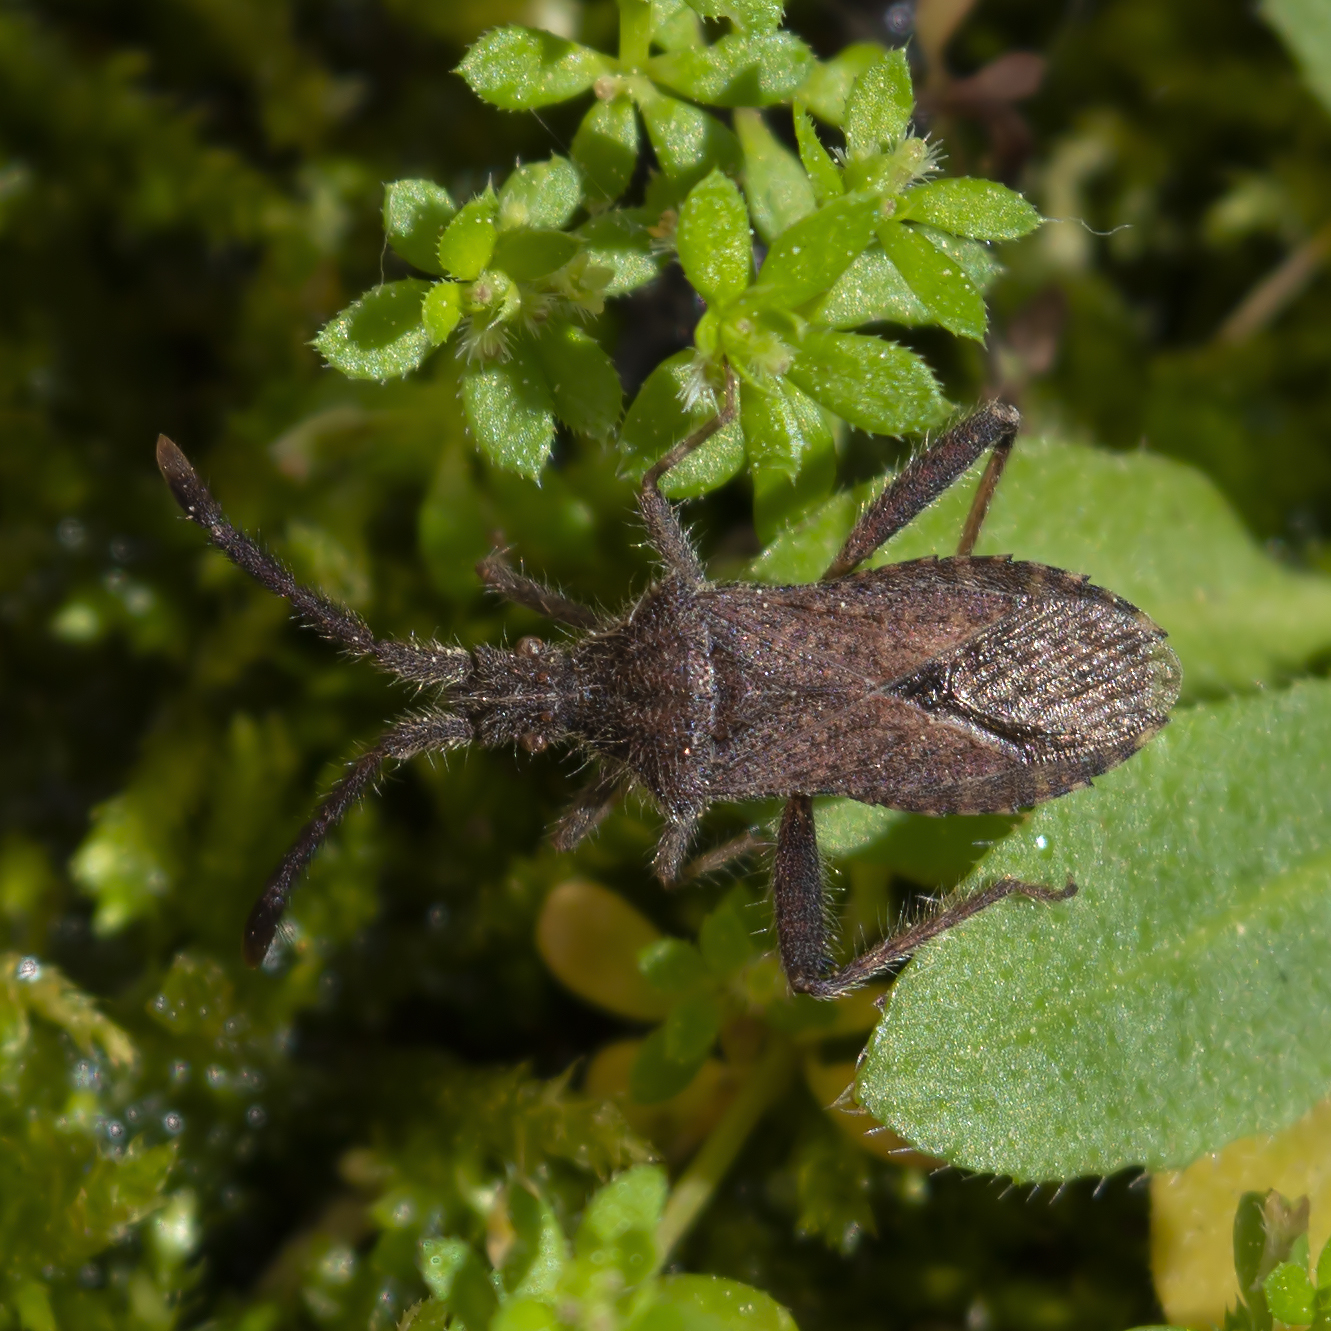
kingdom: Animalia
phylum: Arthropoda
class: Insecta
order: Hemiptera
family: Coreidae
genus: Coriomeris
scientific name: Coriomeris hirticornis
